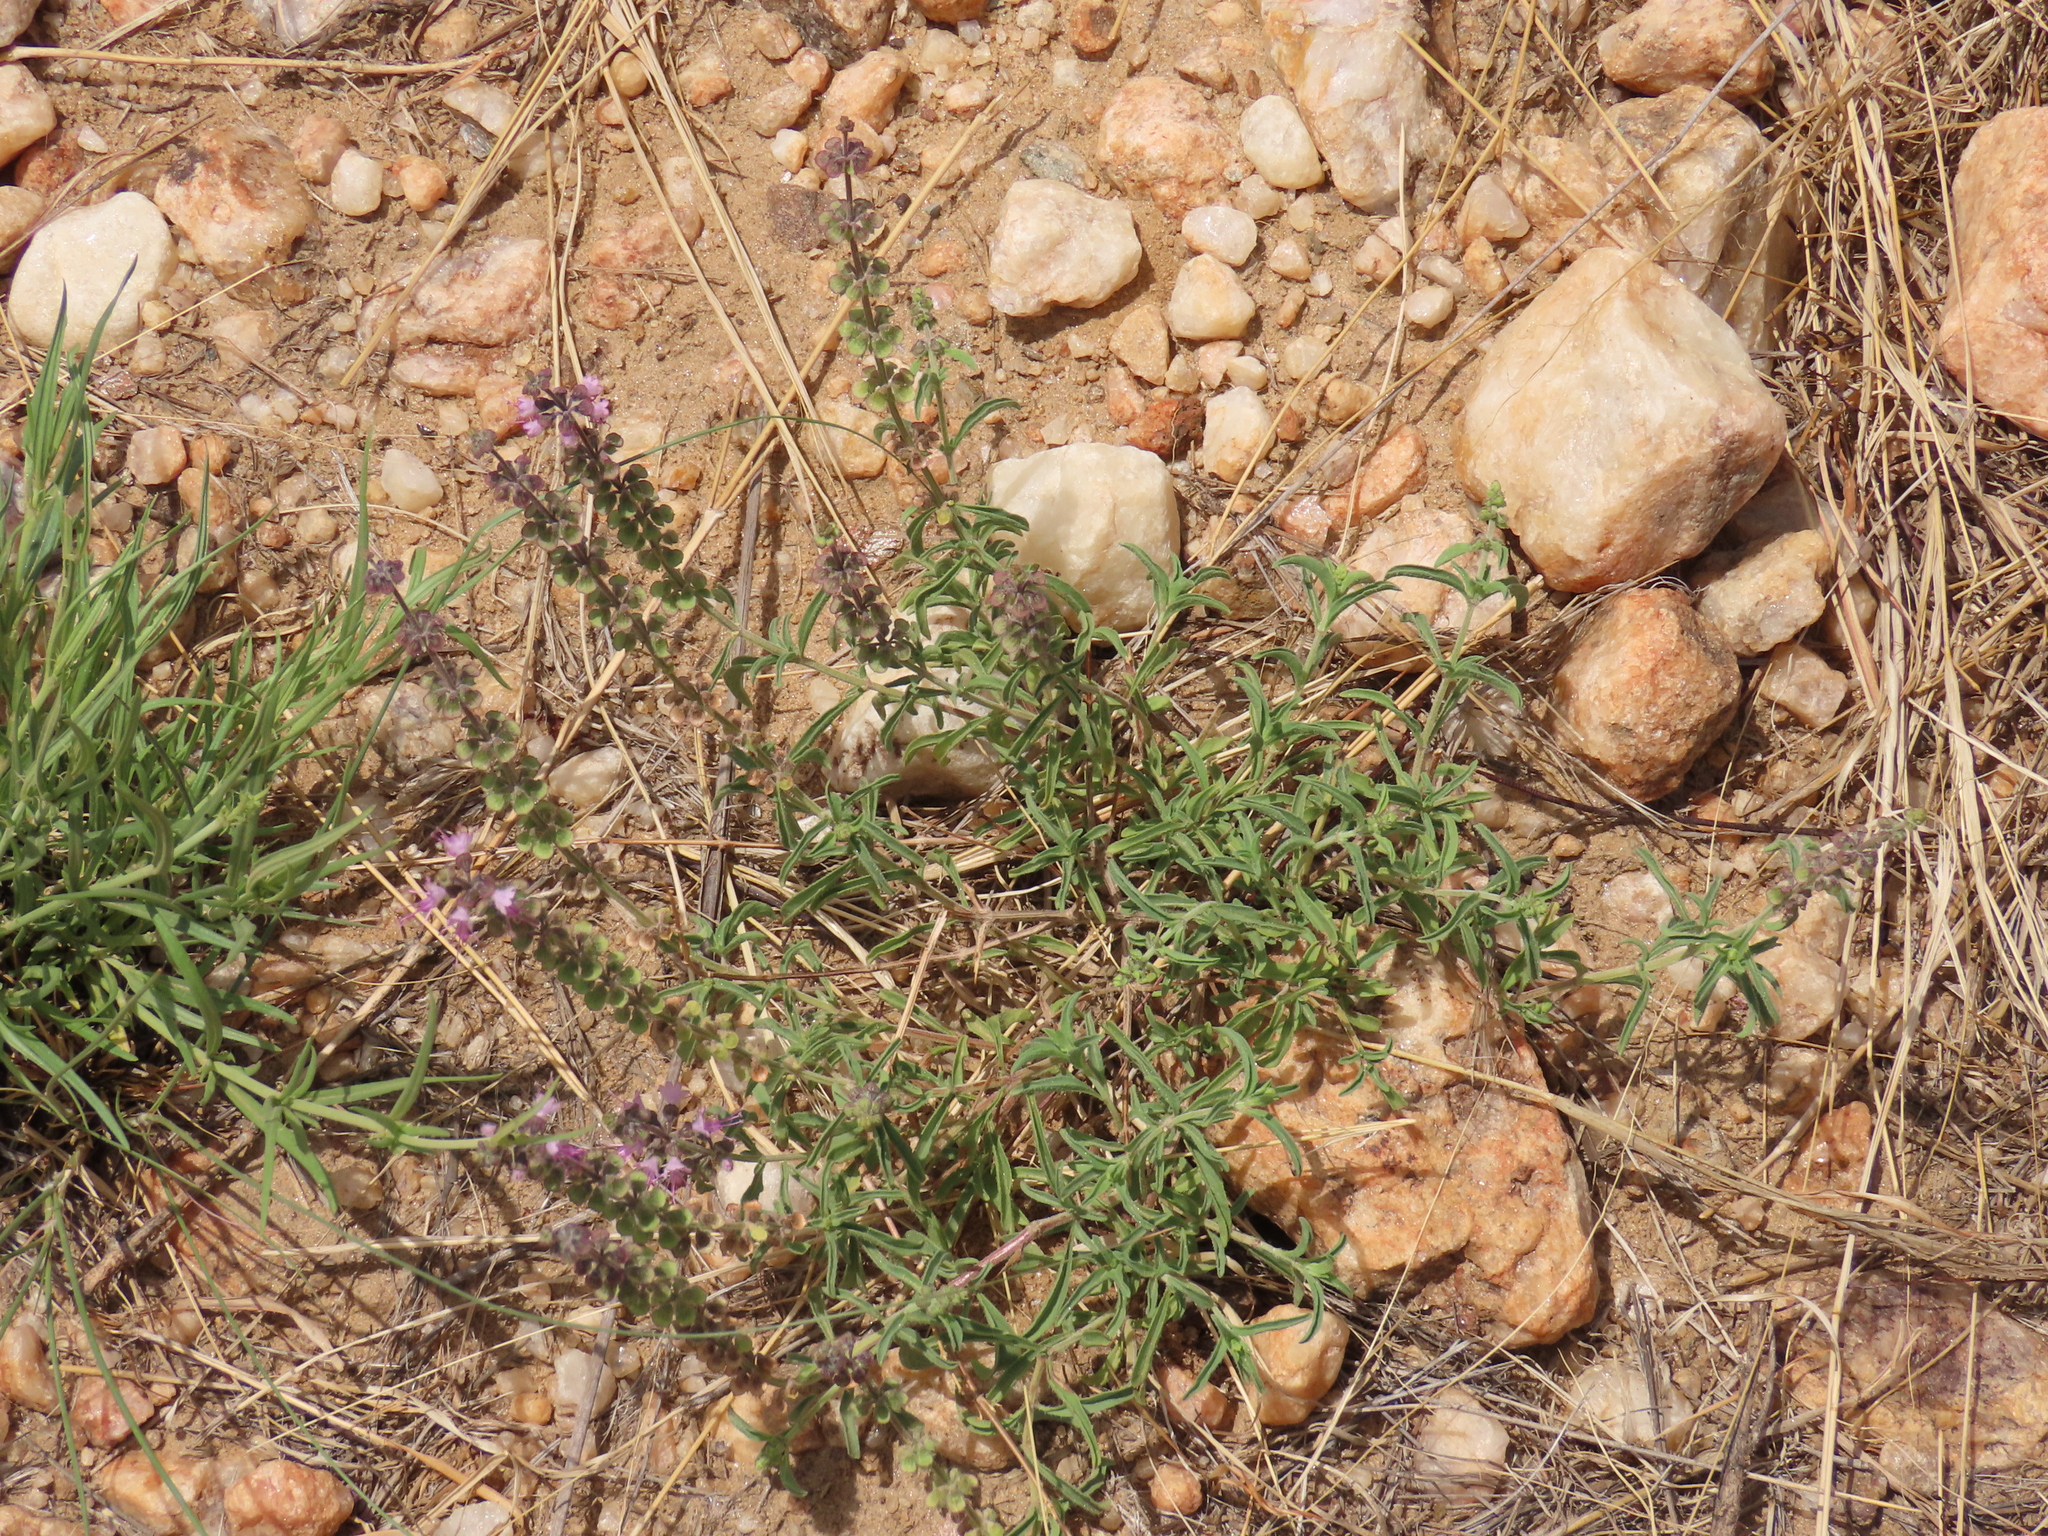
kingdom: Plantae
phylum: Tracheophyta
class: Magnoliopsida
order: Lamiales
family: Lamiaceae
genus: Ocimum
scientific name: Ocimum americanum
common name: American basil
